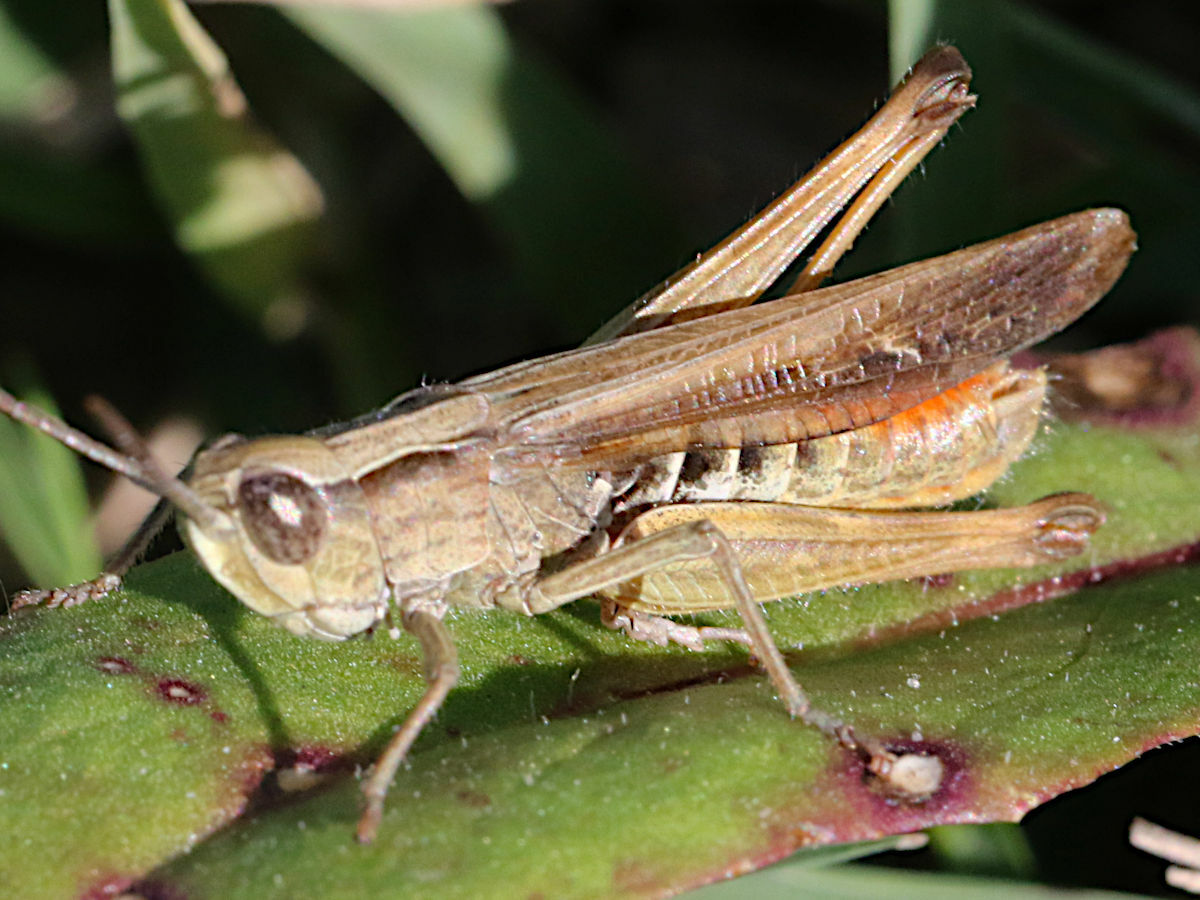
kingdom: Animalia
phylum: Arthropoda
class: Insecta
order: Orthoptera
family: Acrididae
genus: Chorthippus
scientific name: Chorthippus loratus
